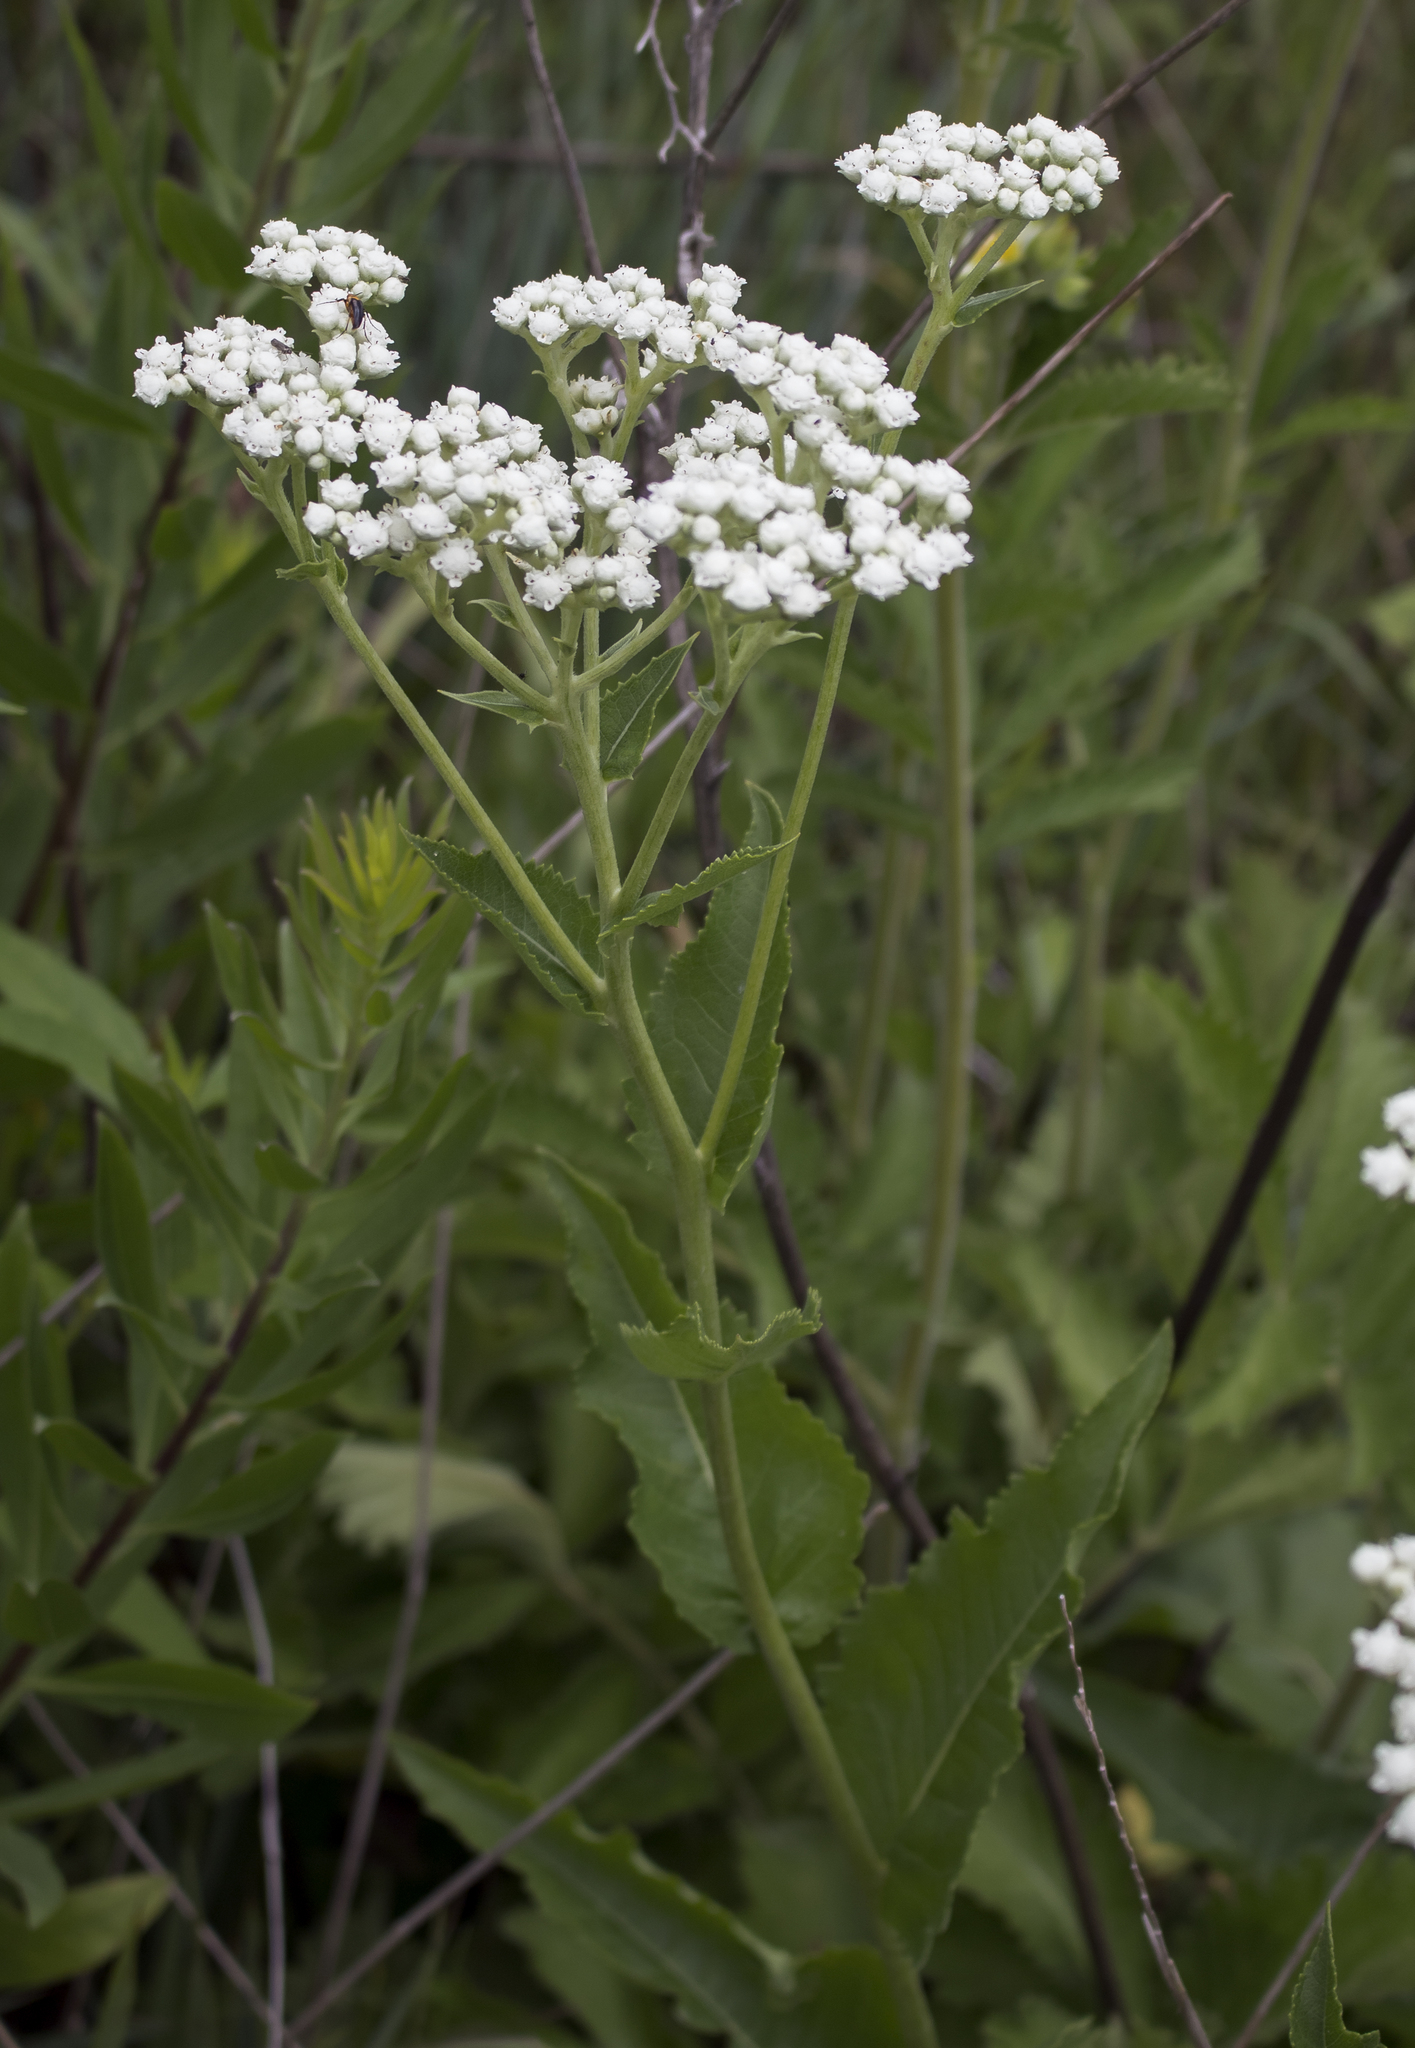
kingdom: Plantae
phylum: Tracheophyta
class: Magnoliopsida
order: Asterales
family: Asteraceae
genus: Parthenium
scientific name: Parthenium integrifolium
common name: American feverfew
